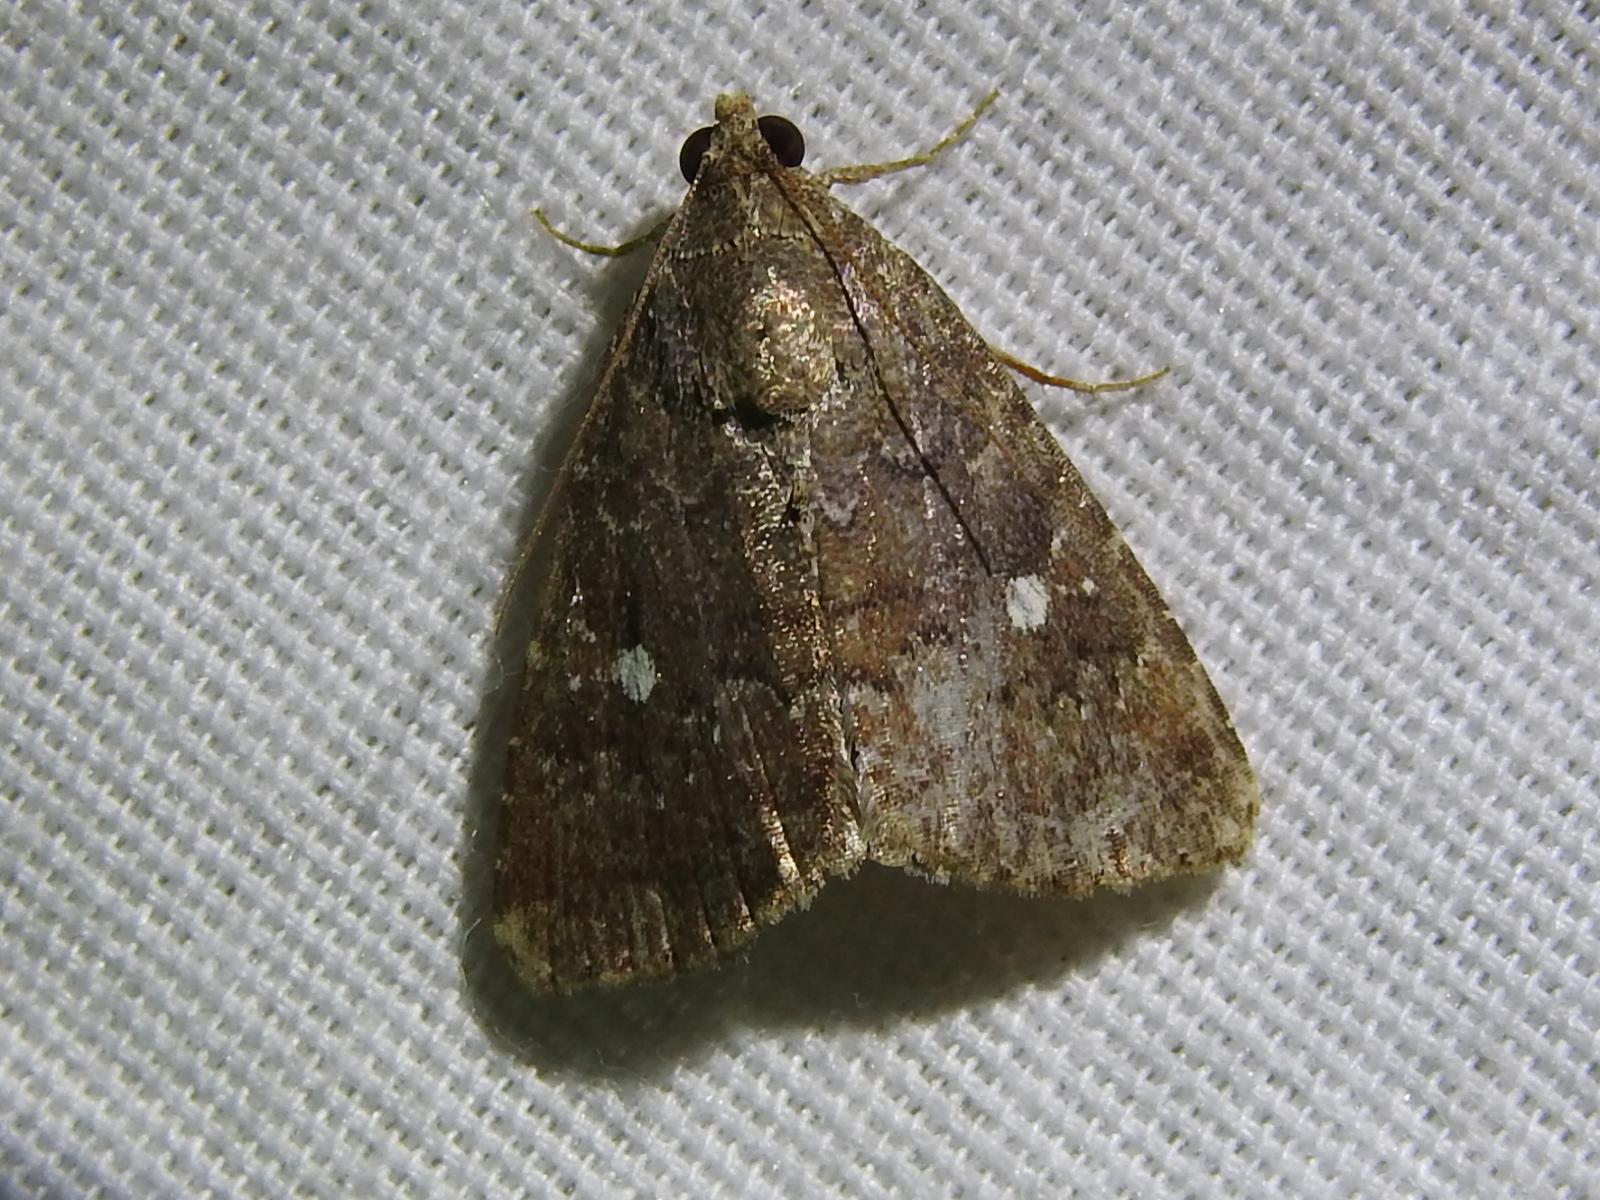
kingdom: Animalia
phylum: Arthropoda
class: Insecta
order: Lepidoptera
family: Noctuidae
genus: Amyna
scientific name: Amyna stricta
